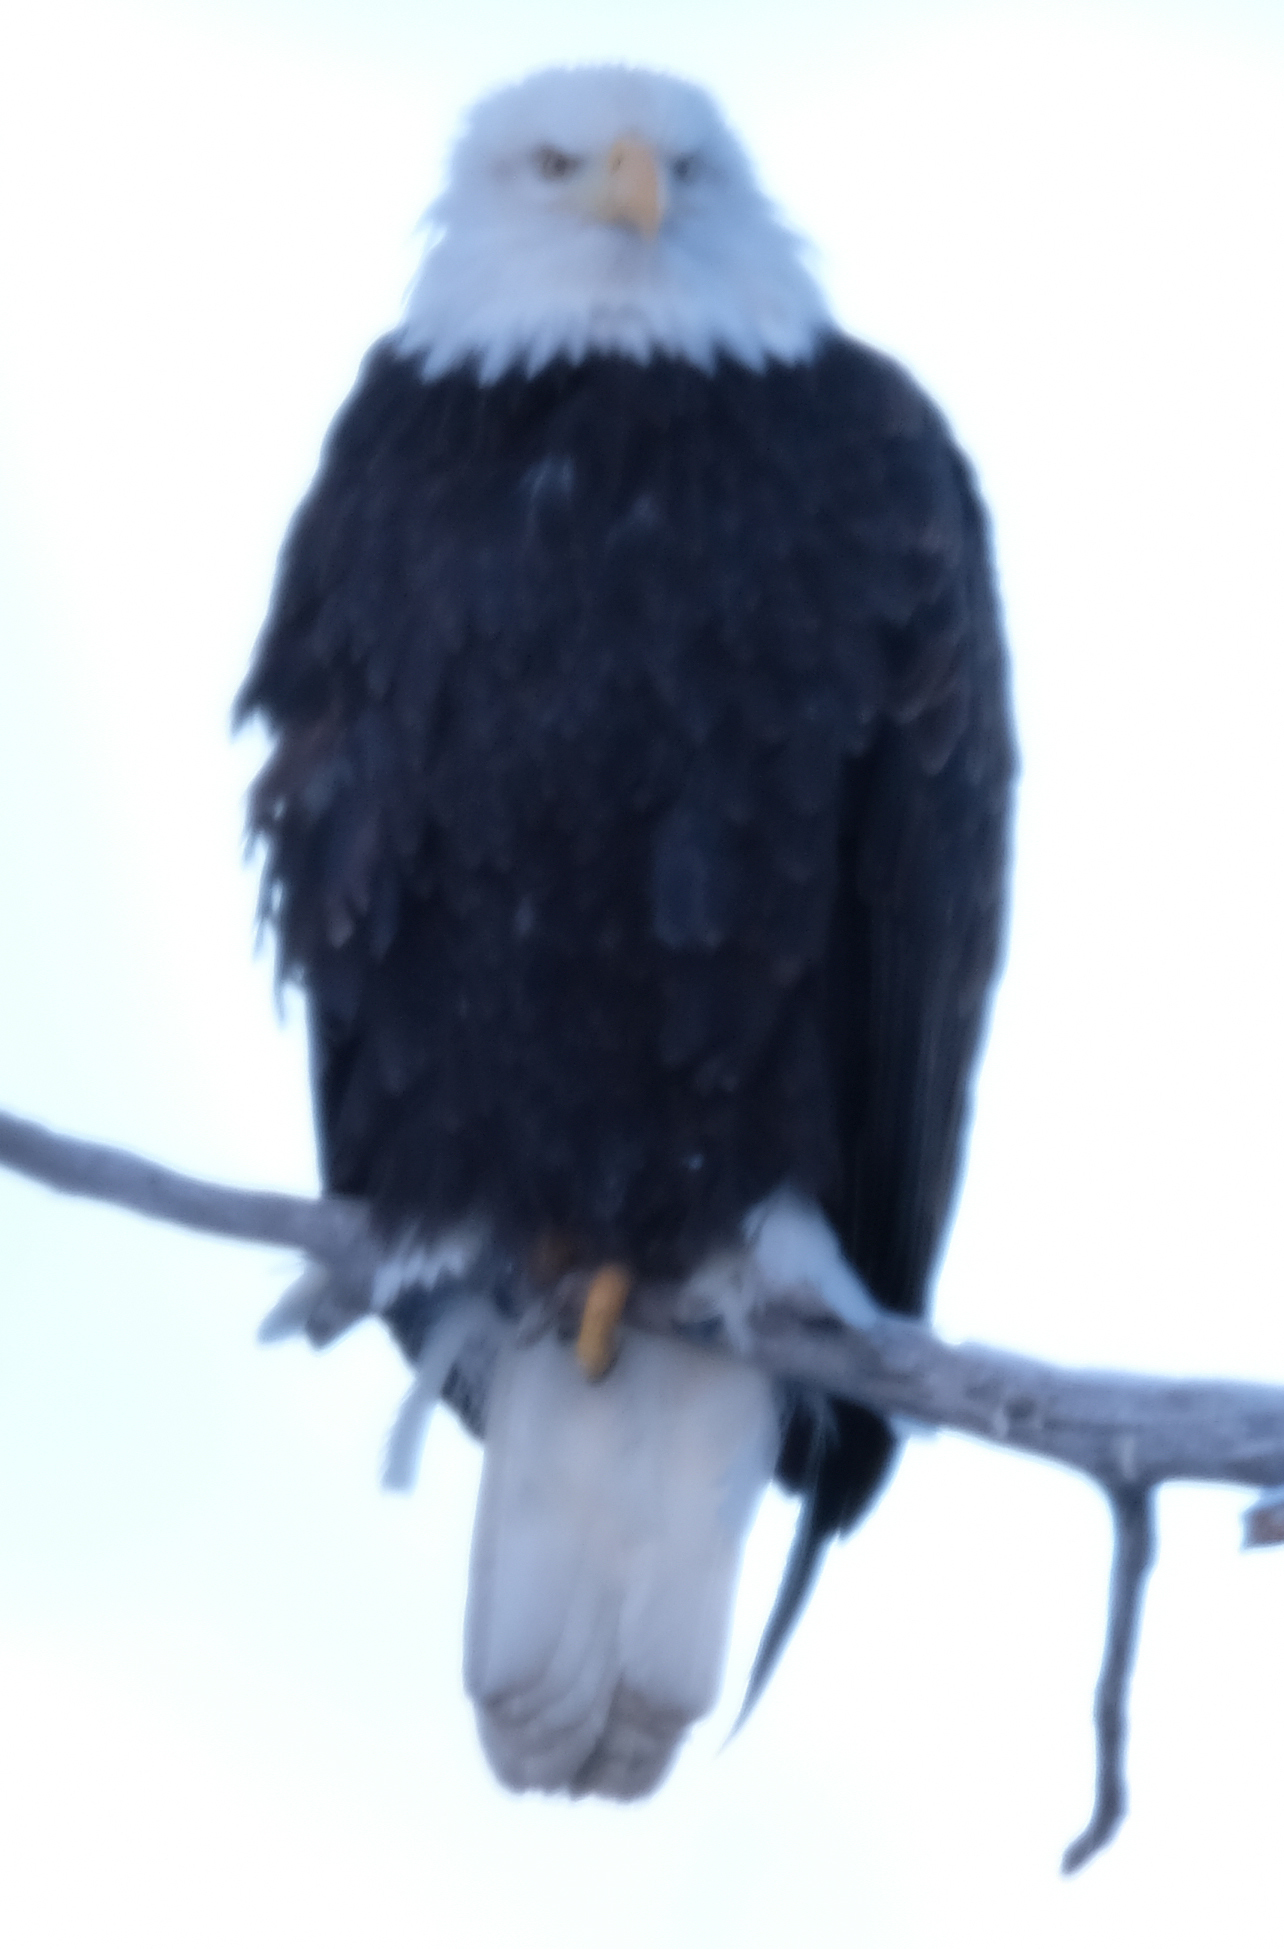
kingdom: Animalia
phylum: Chordata
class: Aves
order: Accipitriformes
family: Accipitridae
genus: Haliaeetus
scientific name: Haliaeetus leucocephalus
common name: Bald eagle
